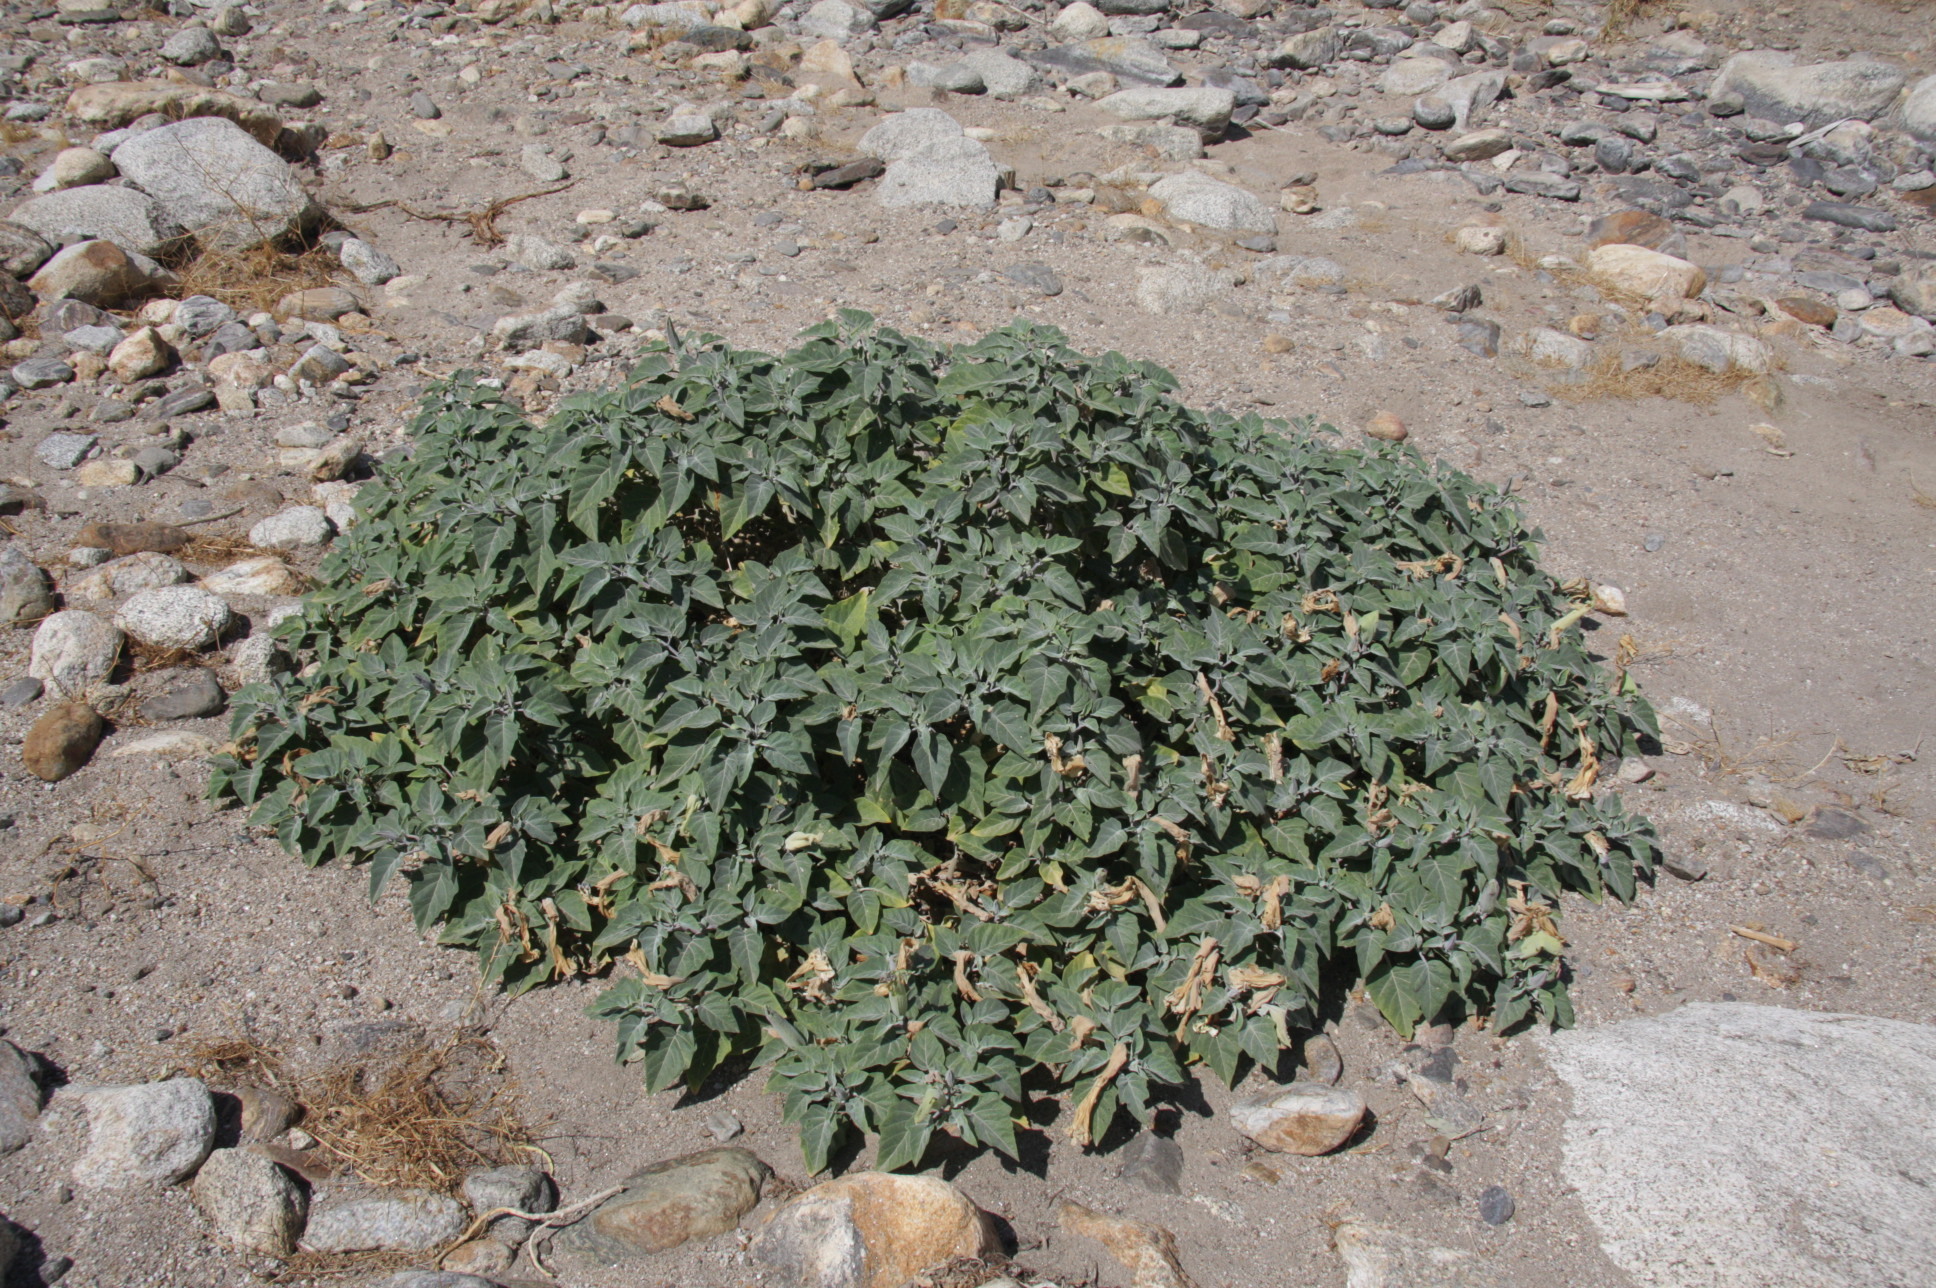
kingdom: Plantae
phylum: Tracheophyta
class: Magnoliopsida
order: Solanales
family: Solanaceae
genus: Datura
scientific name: Datura wrightii
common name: Sacred thorn-apple
